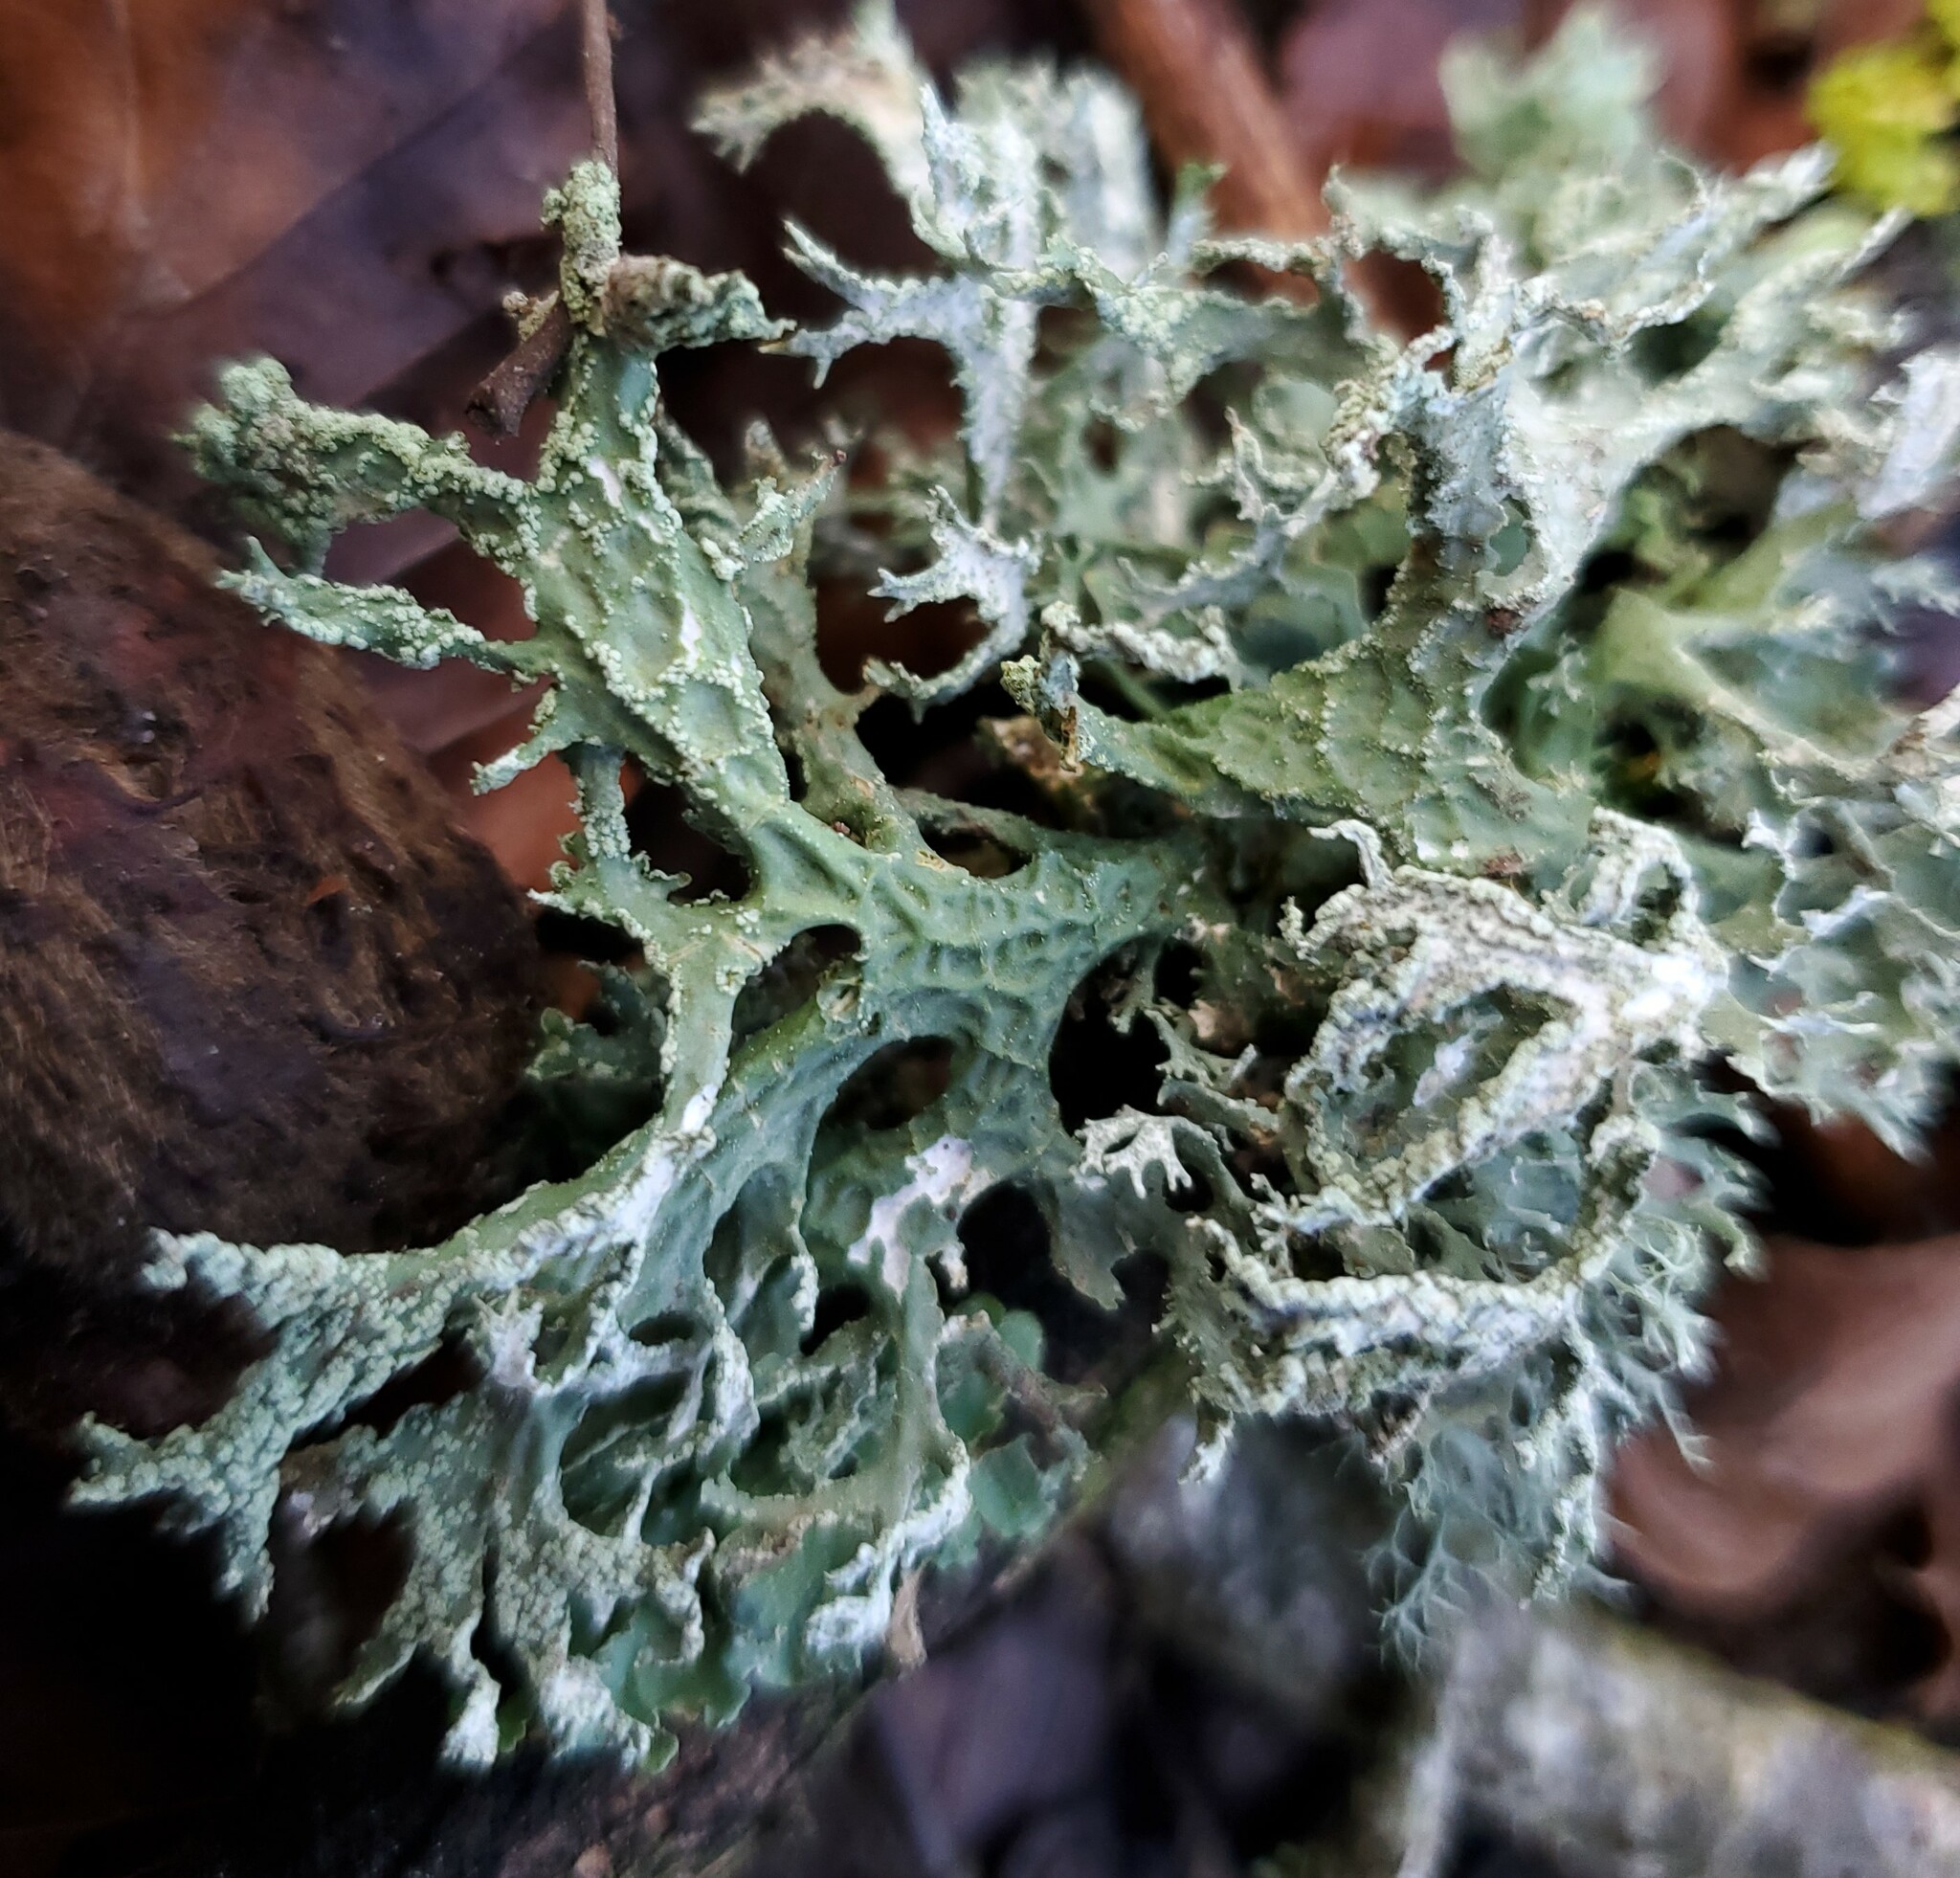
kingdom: Fungi
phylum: Ascomycota
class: Lecanoromycetes
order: Lecanorales
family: Parmeliaceae
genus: Evernia
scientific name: Evernia prunastri
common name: Oak moss
